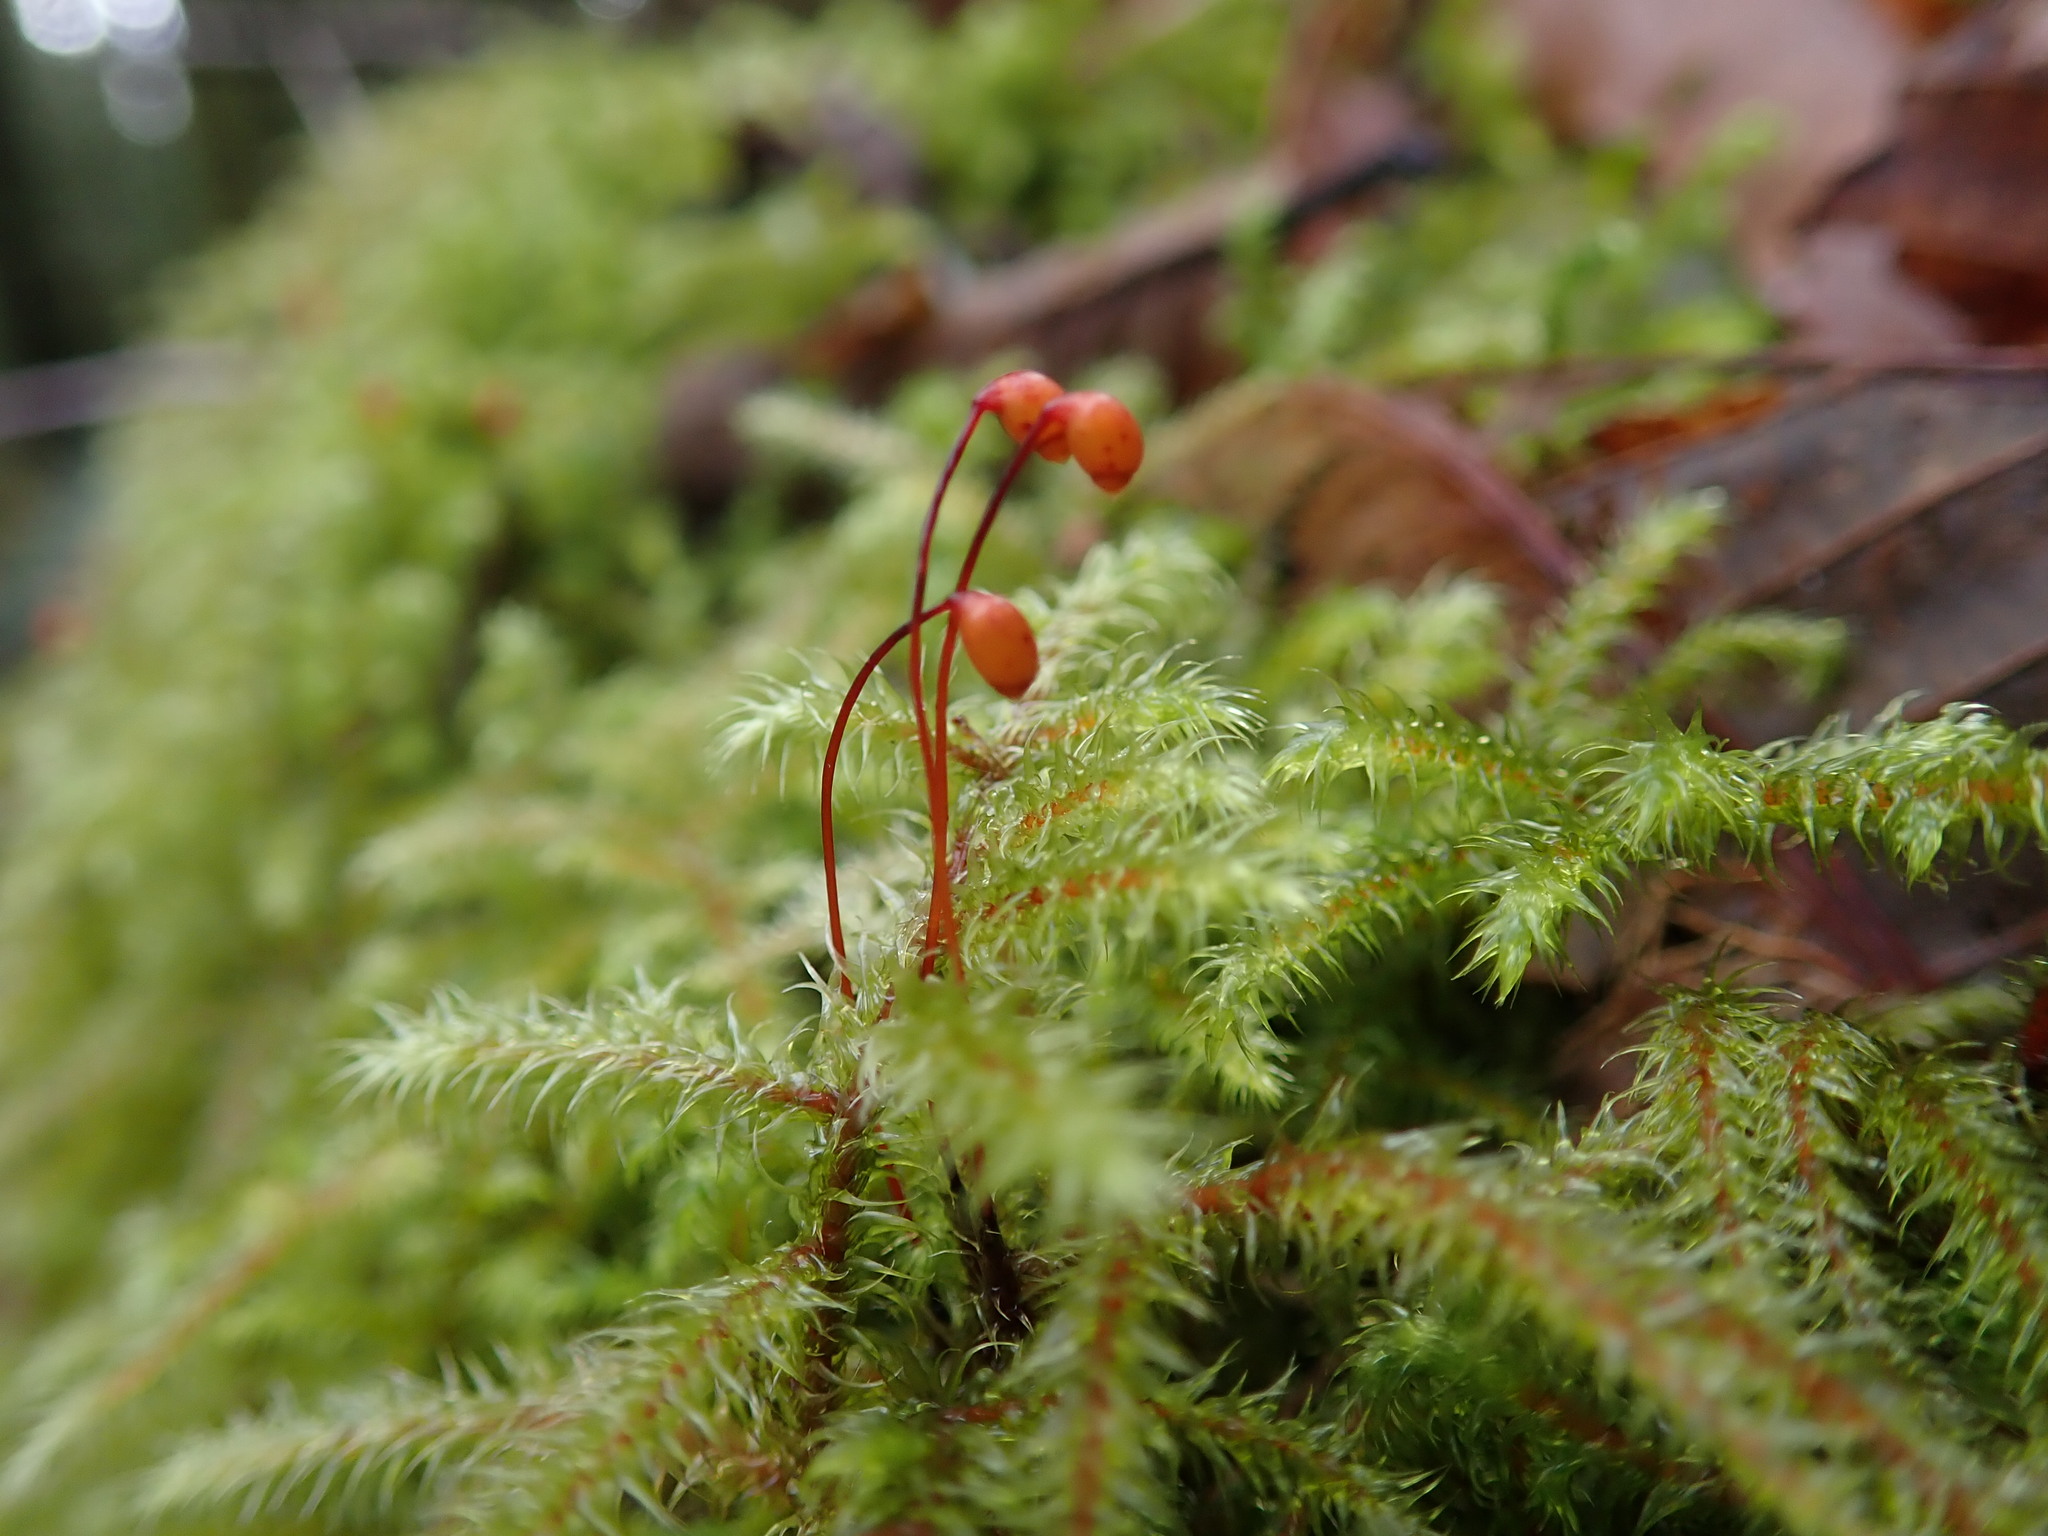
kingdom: Plantae
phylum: Bryophyta
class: Bryopsida
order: Hypnales
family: Hylocomiaceae
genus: Rhytidiadelphus
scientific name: Rhytidiadelphus loreus
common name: Lanky moss
